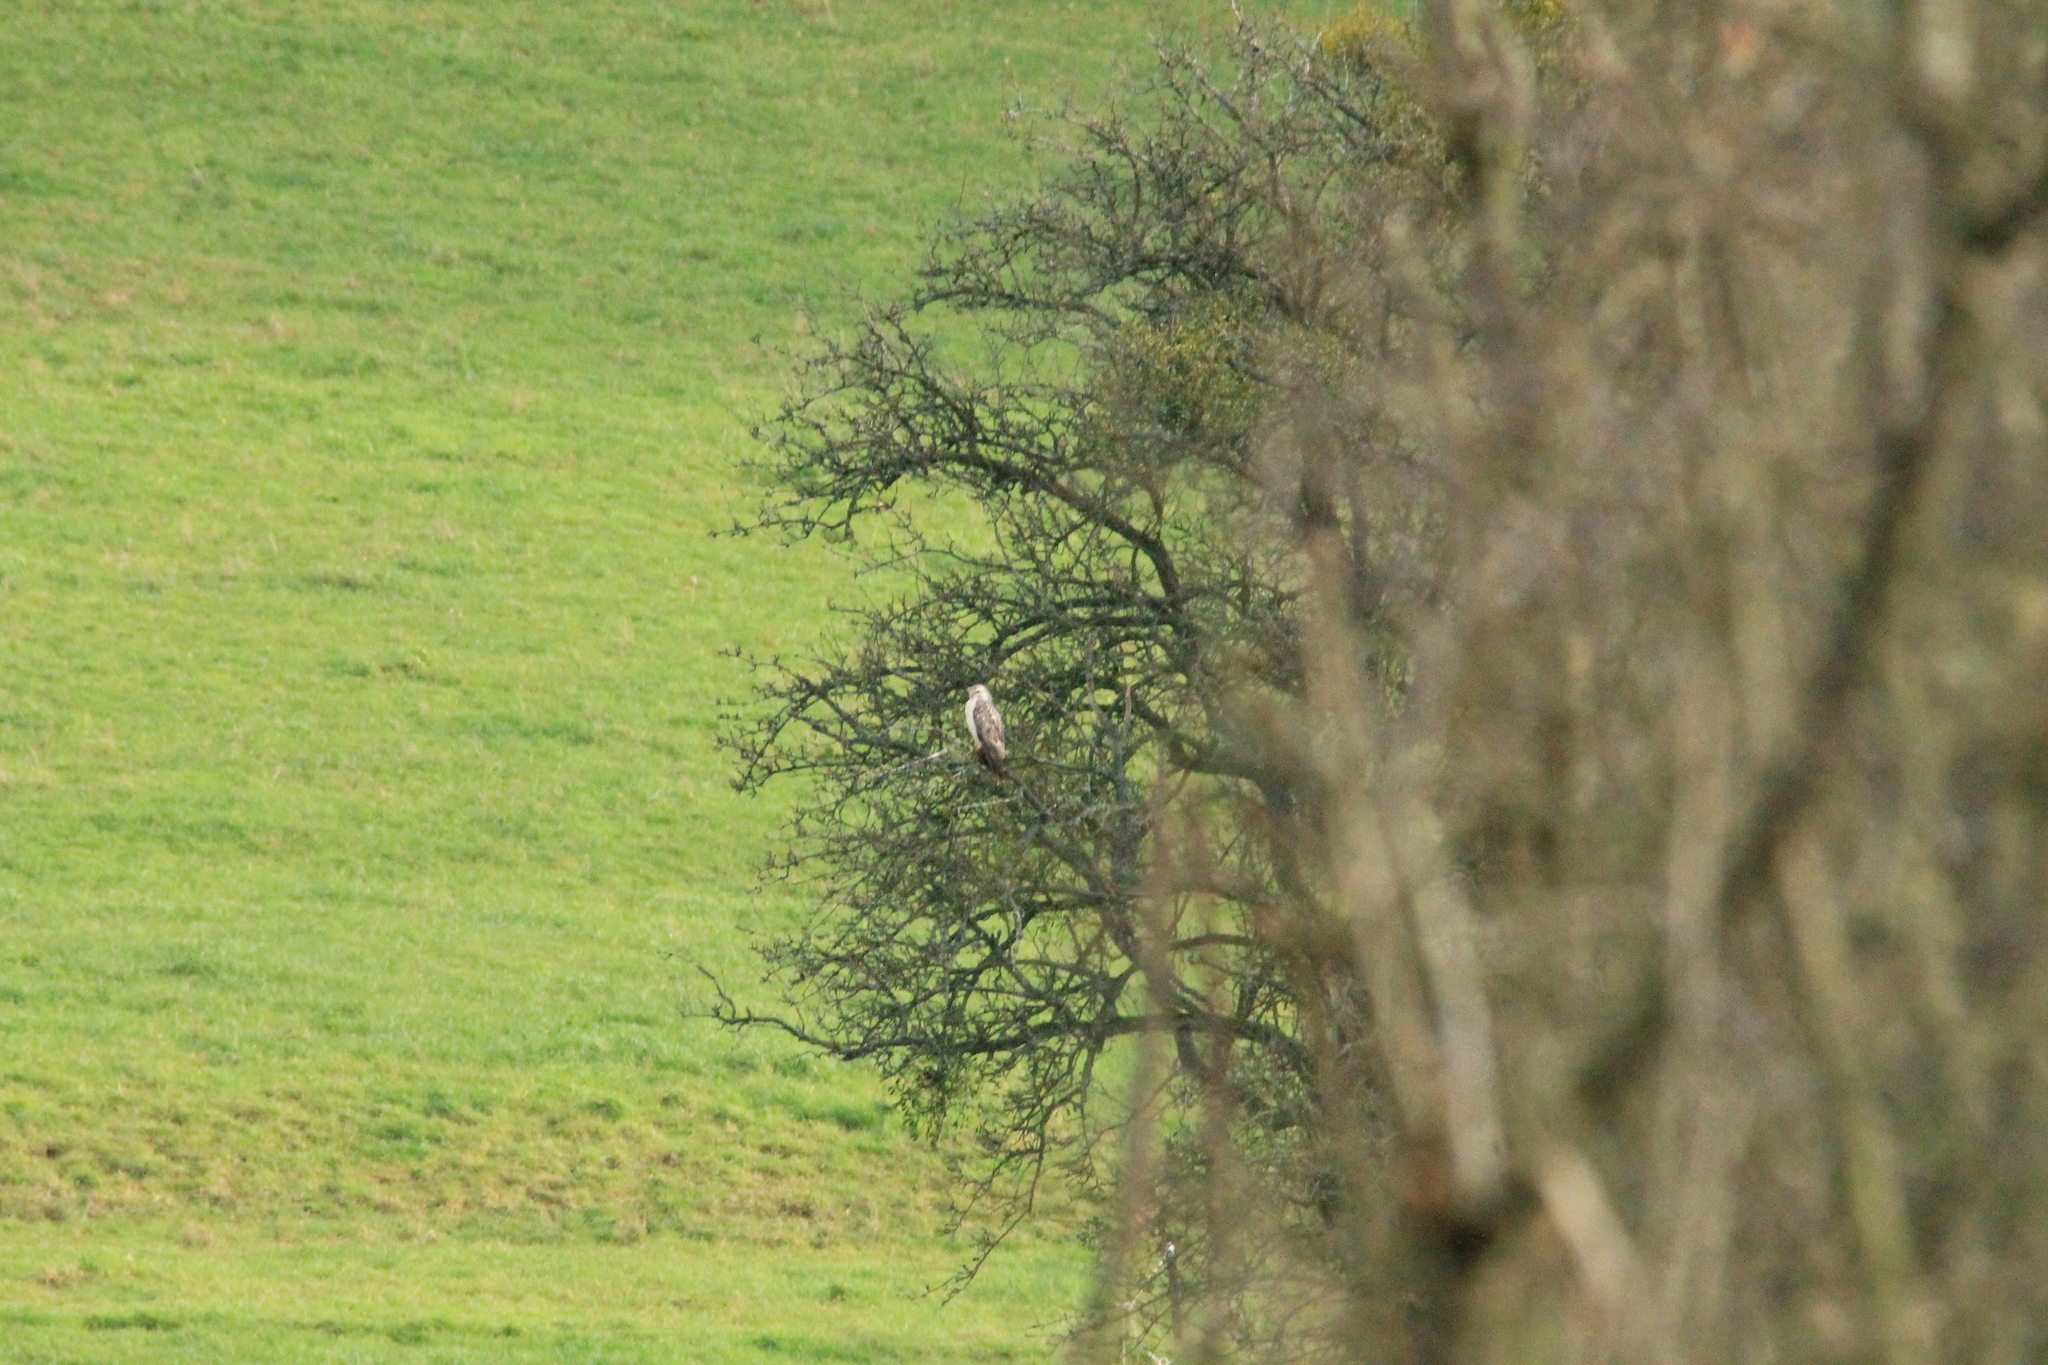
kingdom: Animalia
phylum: Chordata
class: Aves
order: Accipitriformes
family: Accipitridae
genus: Buteo
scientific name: Buteo buteo
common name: Common buzzard
